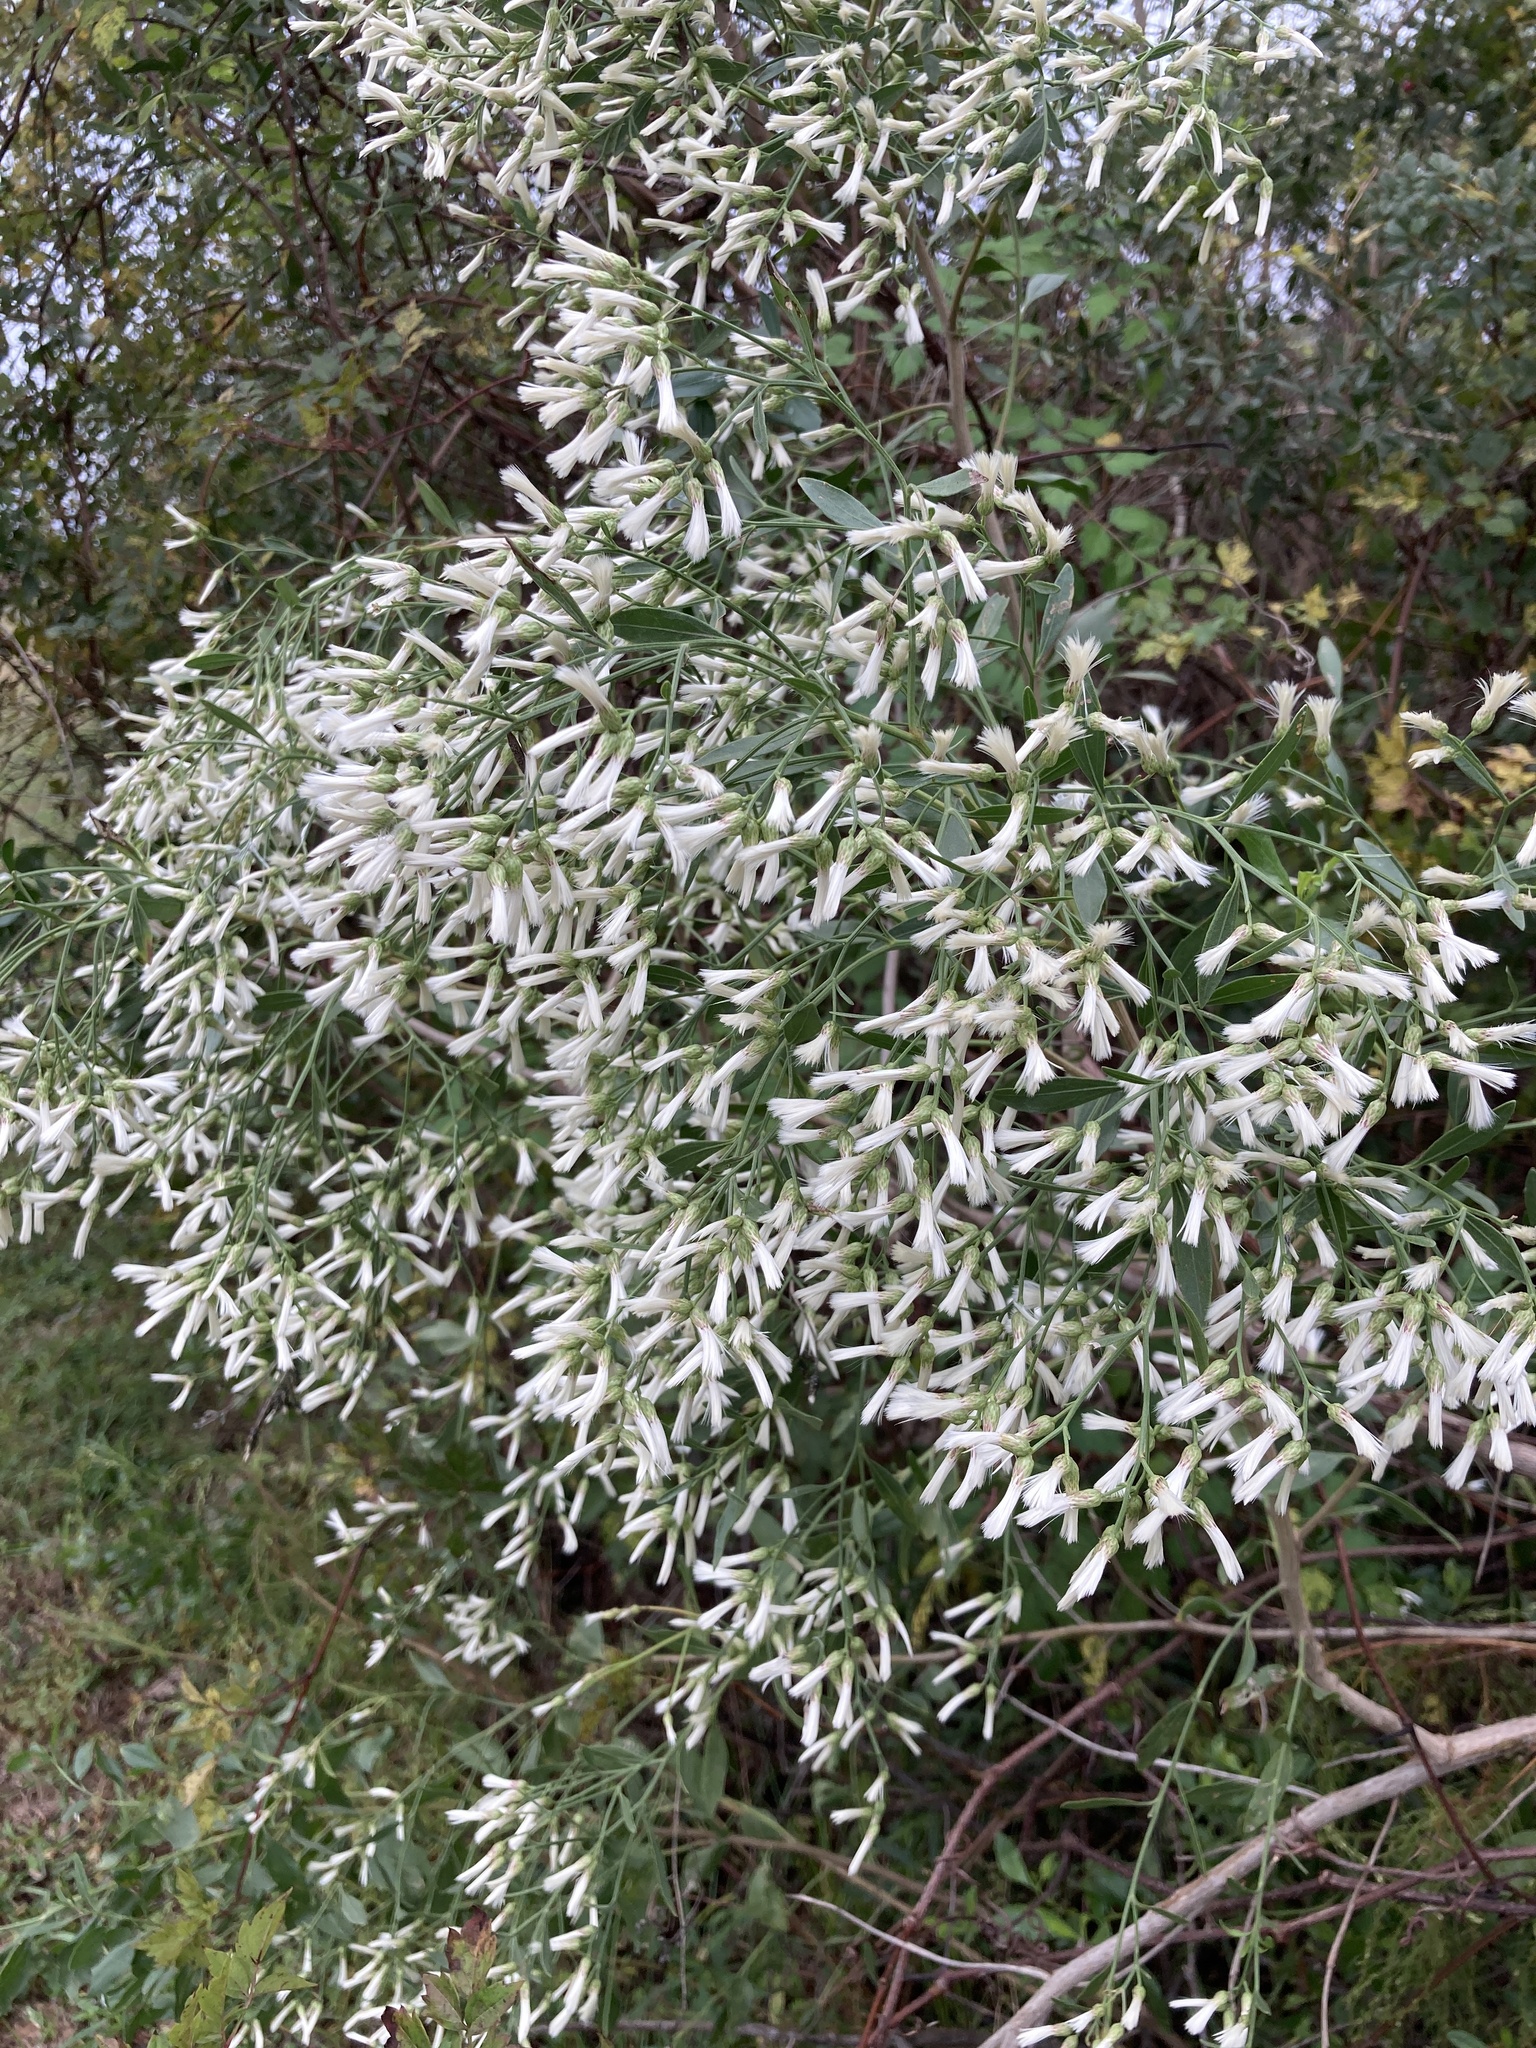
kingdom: Plantae
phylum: Tracheophyta
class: Magnoliopsida
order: Asterales
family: Asteraceae
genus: Baccharis
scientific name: Baccharis halimifolia
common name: Eastern baccharis
